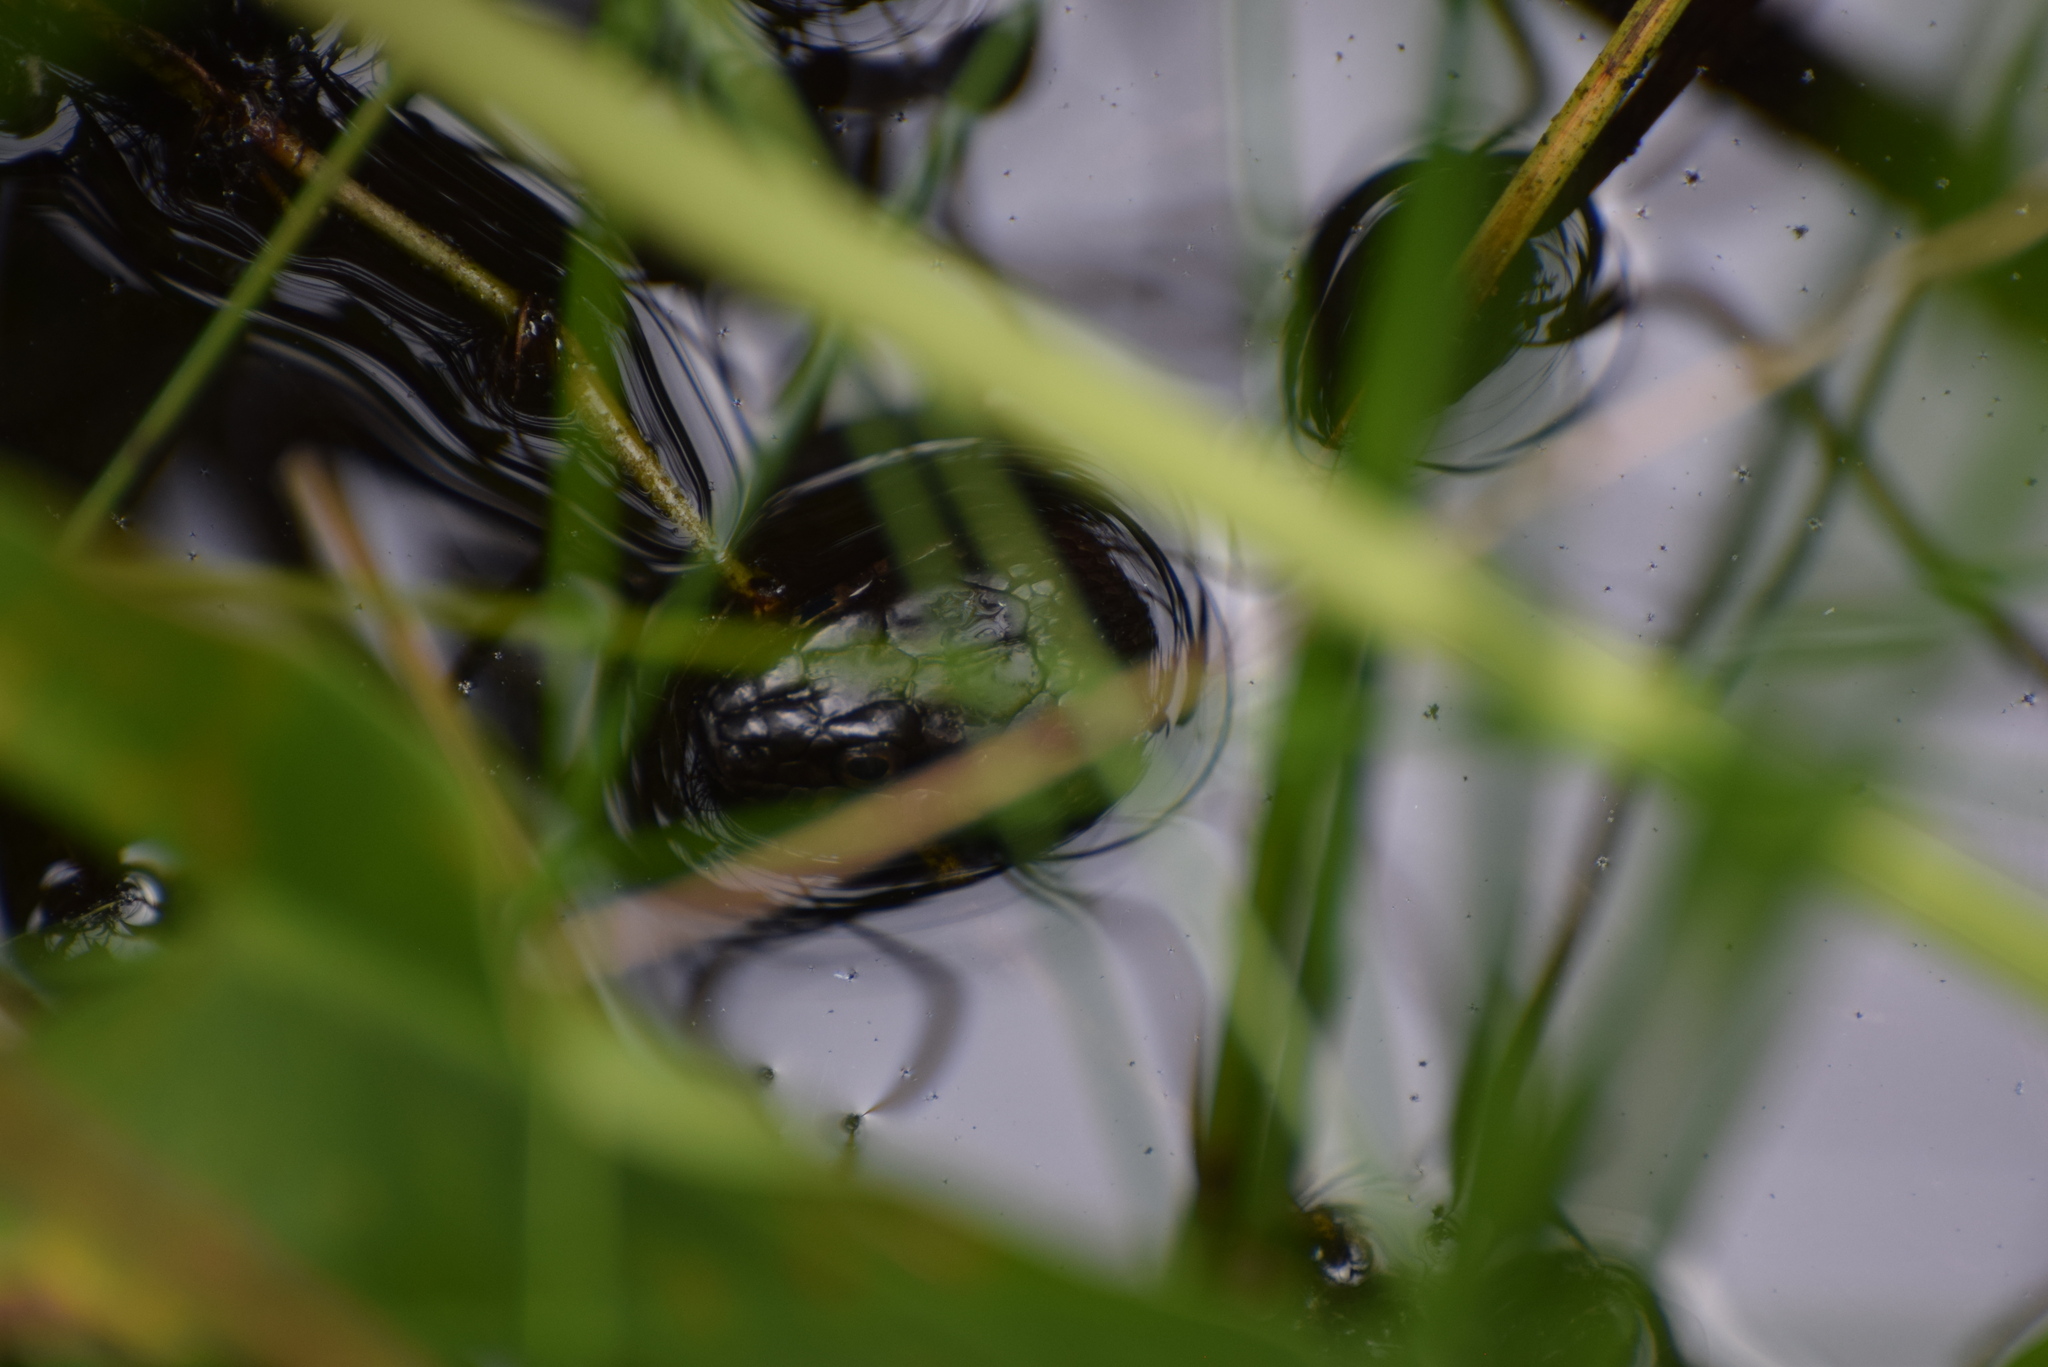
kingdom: Animalia
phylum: Chordata
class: Squamata
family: Colubridae
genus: Nerodia
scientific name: Nerodia sipedon
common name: Northern water snake
